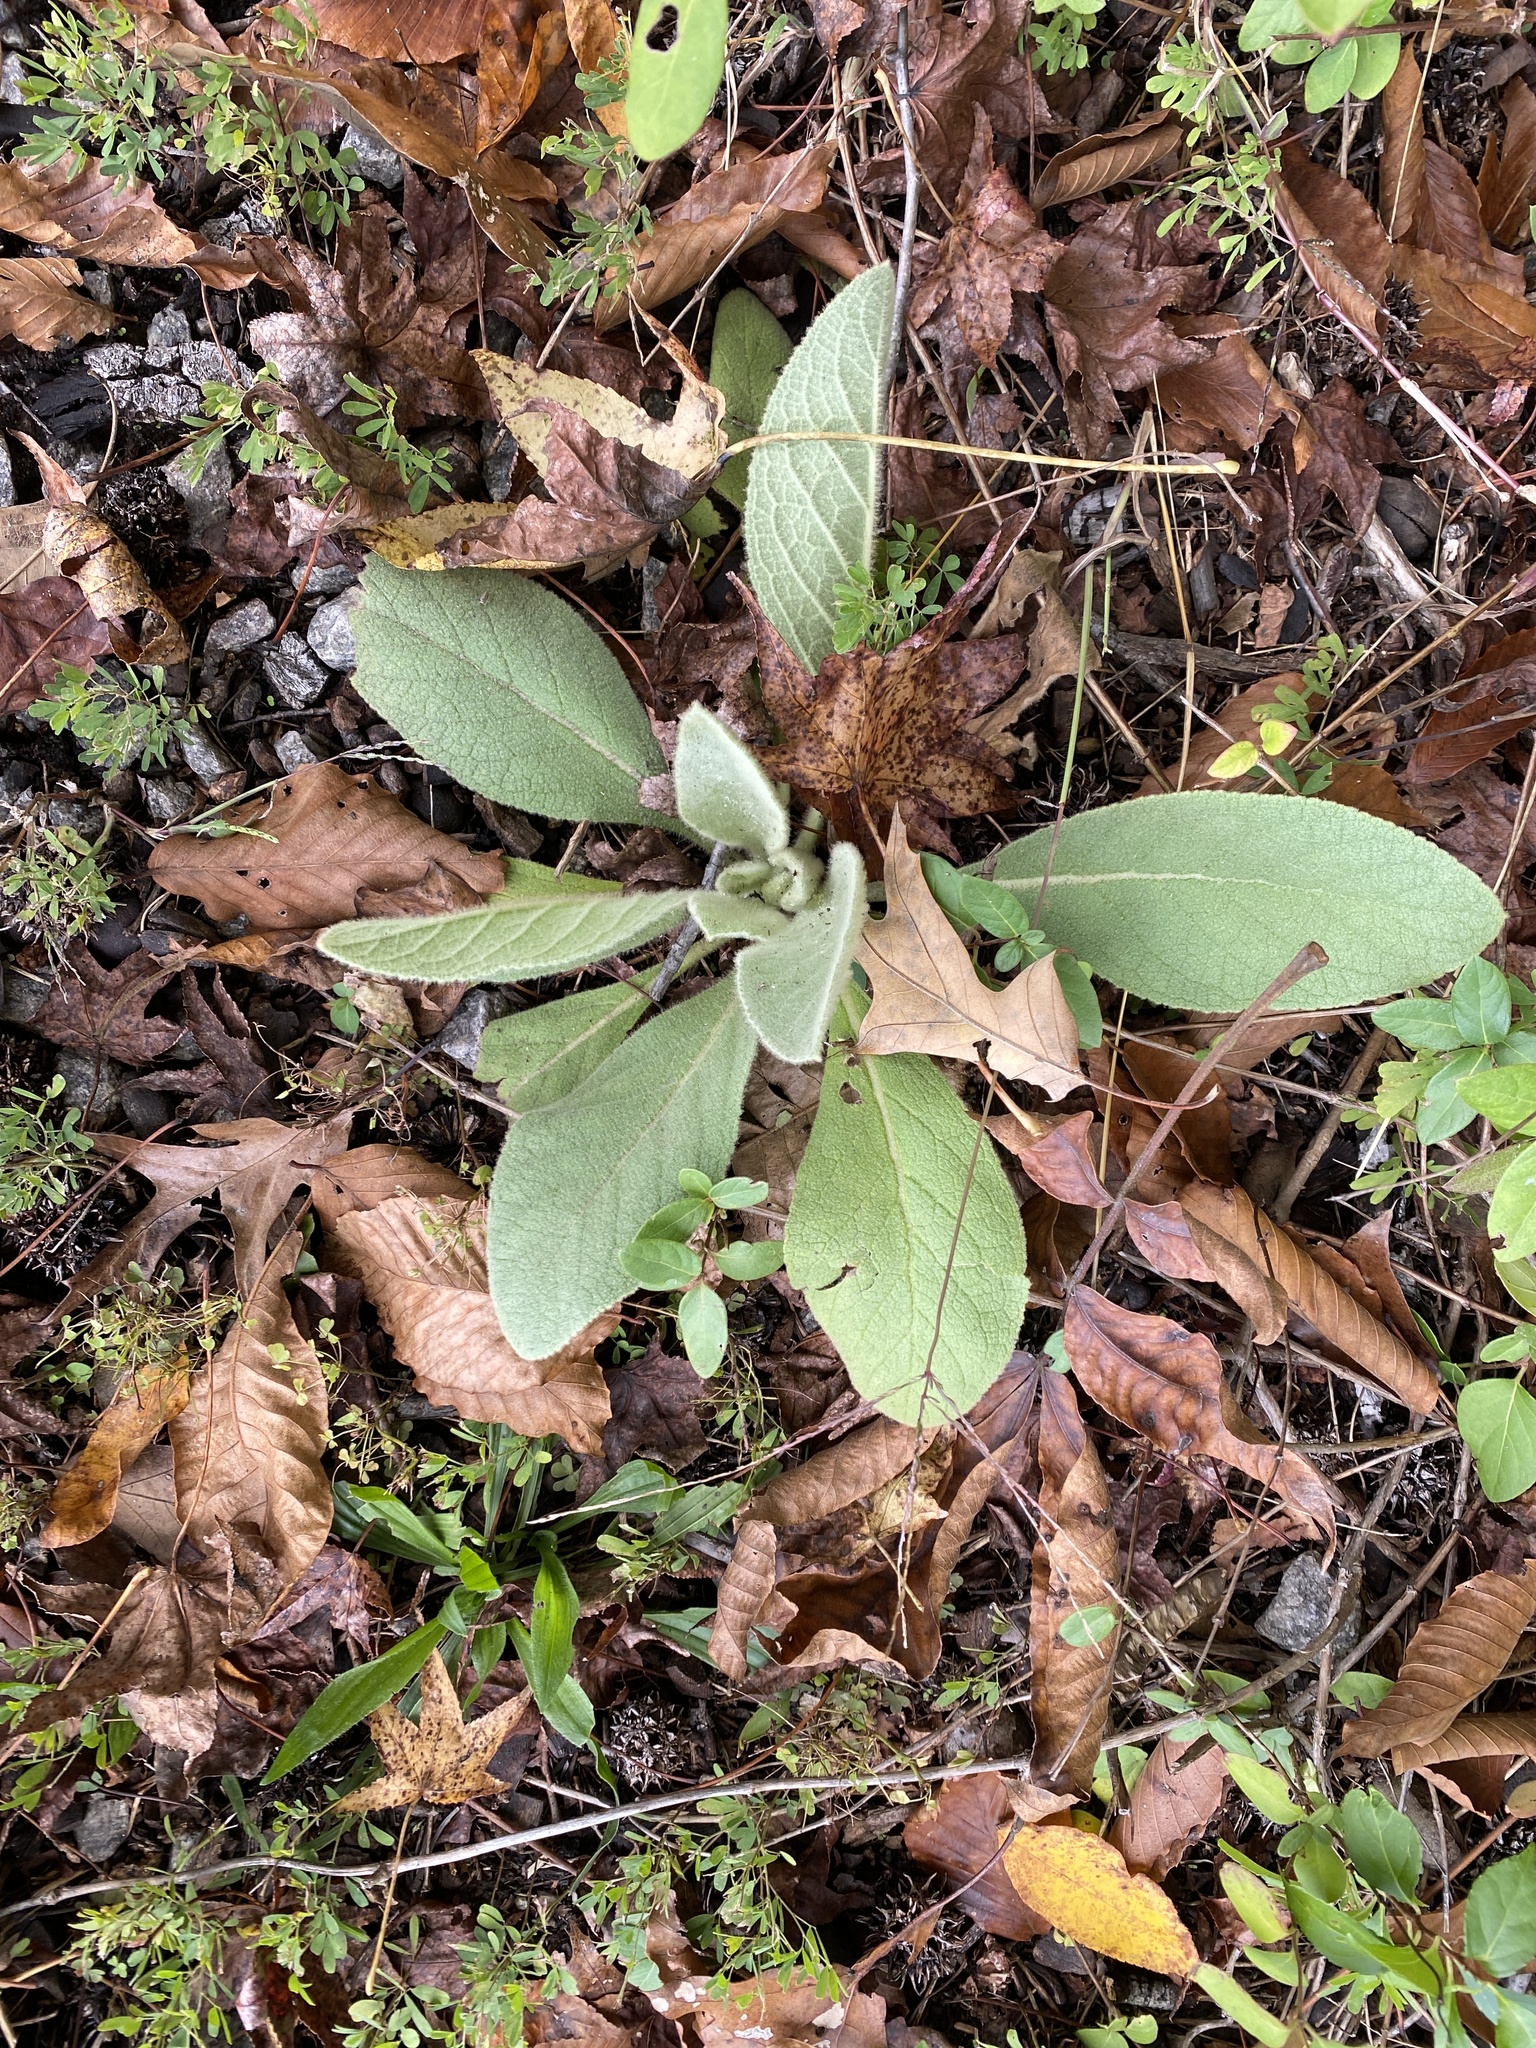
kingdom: Plantae
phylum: Tracheophyta
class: Magnoliopsida
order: Lamiales
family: Scrophulariaceae
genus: Verbascum
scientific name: Verbascum thapsus
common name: Common mullein
